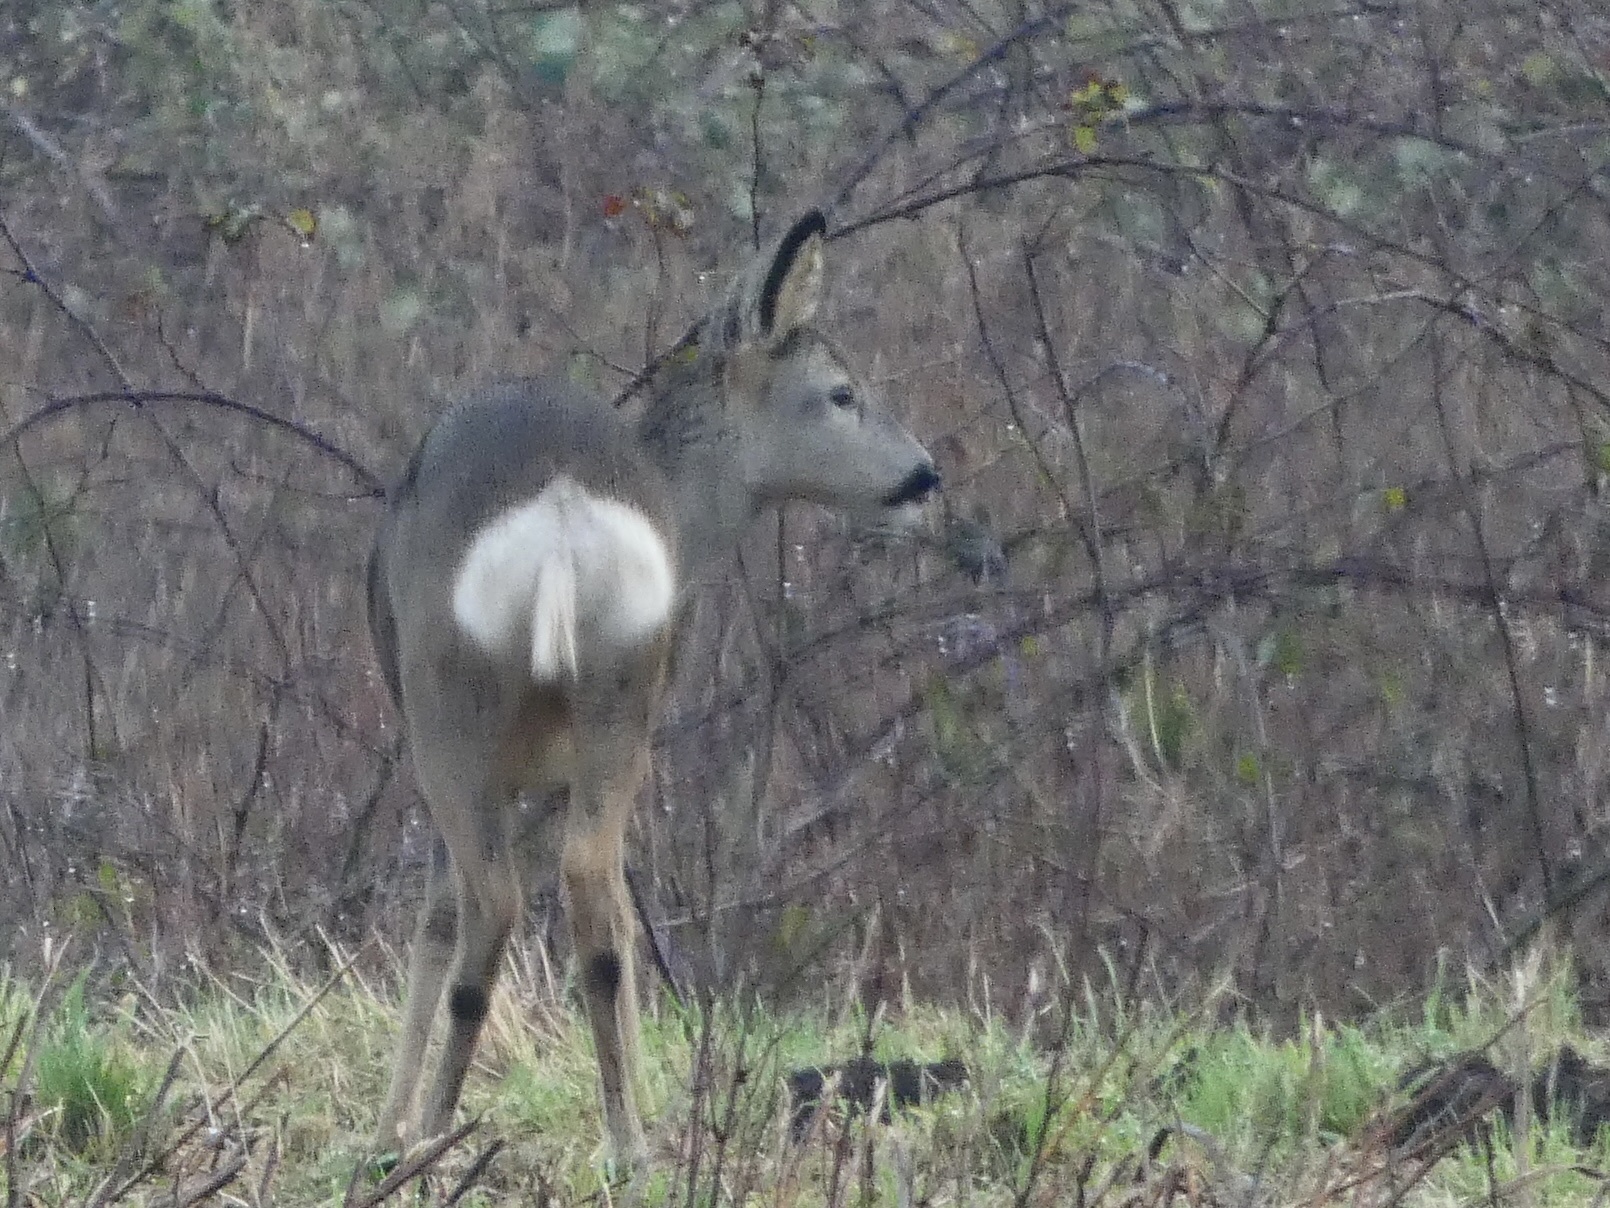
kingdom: Animalia
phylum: Chordata
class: Mammalia
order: Artiodactyla
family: Cervidae
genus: Capreolus
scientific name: Capreolus capreolus
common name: Western roe deer
